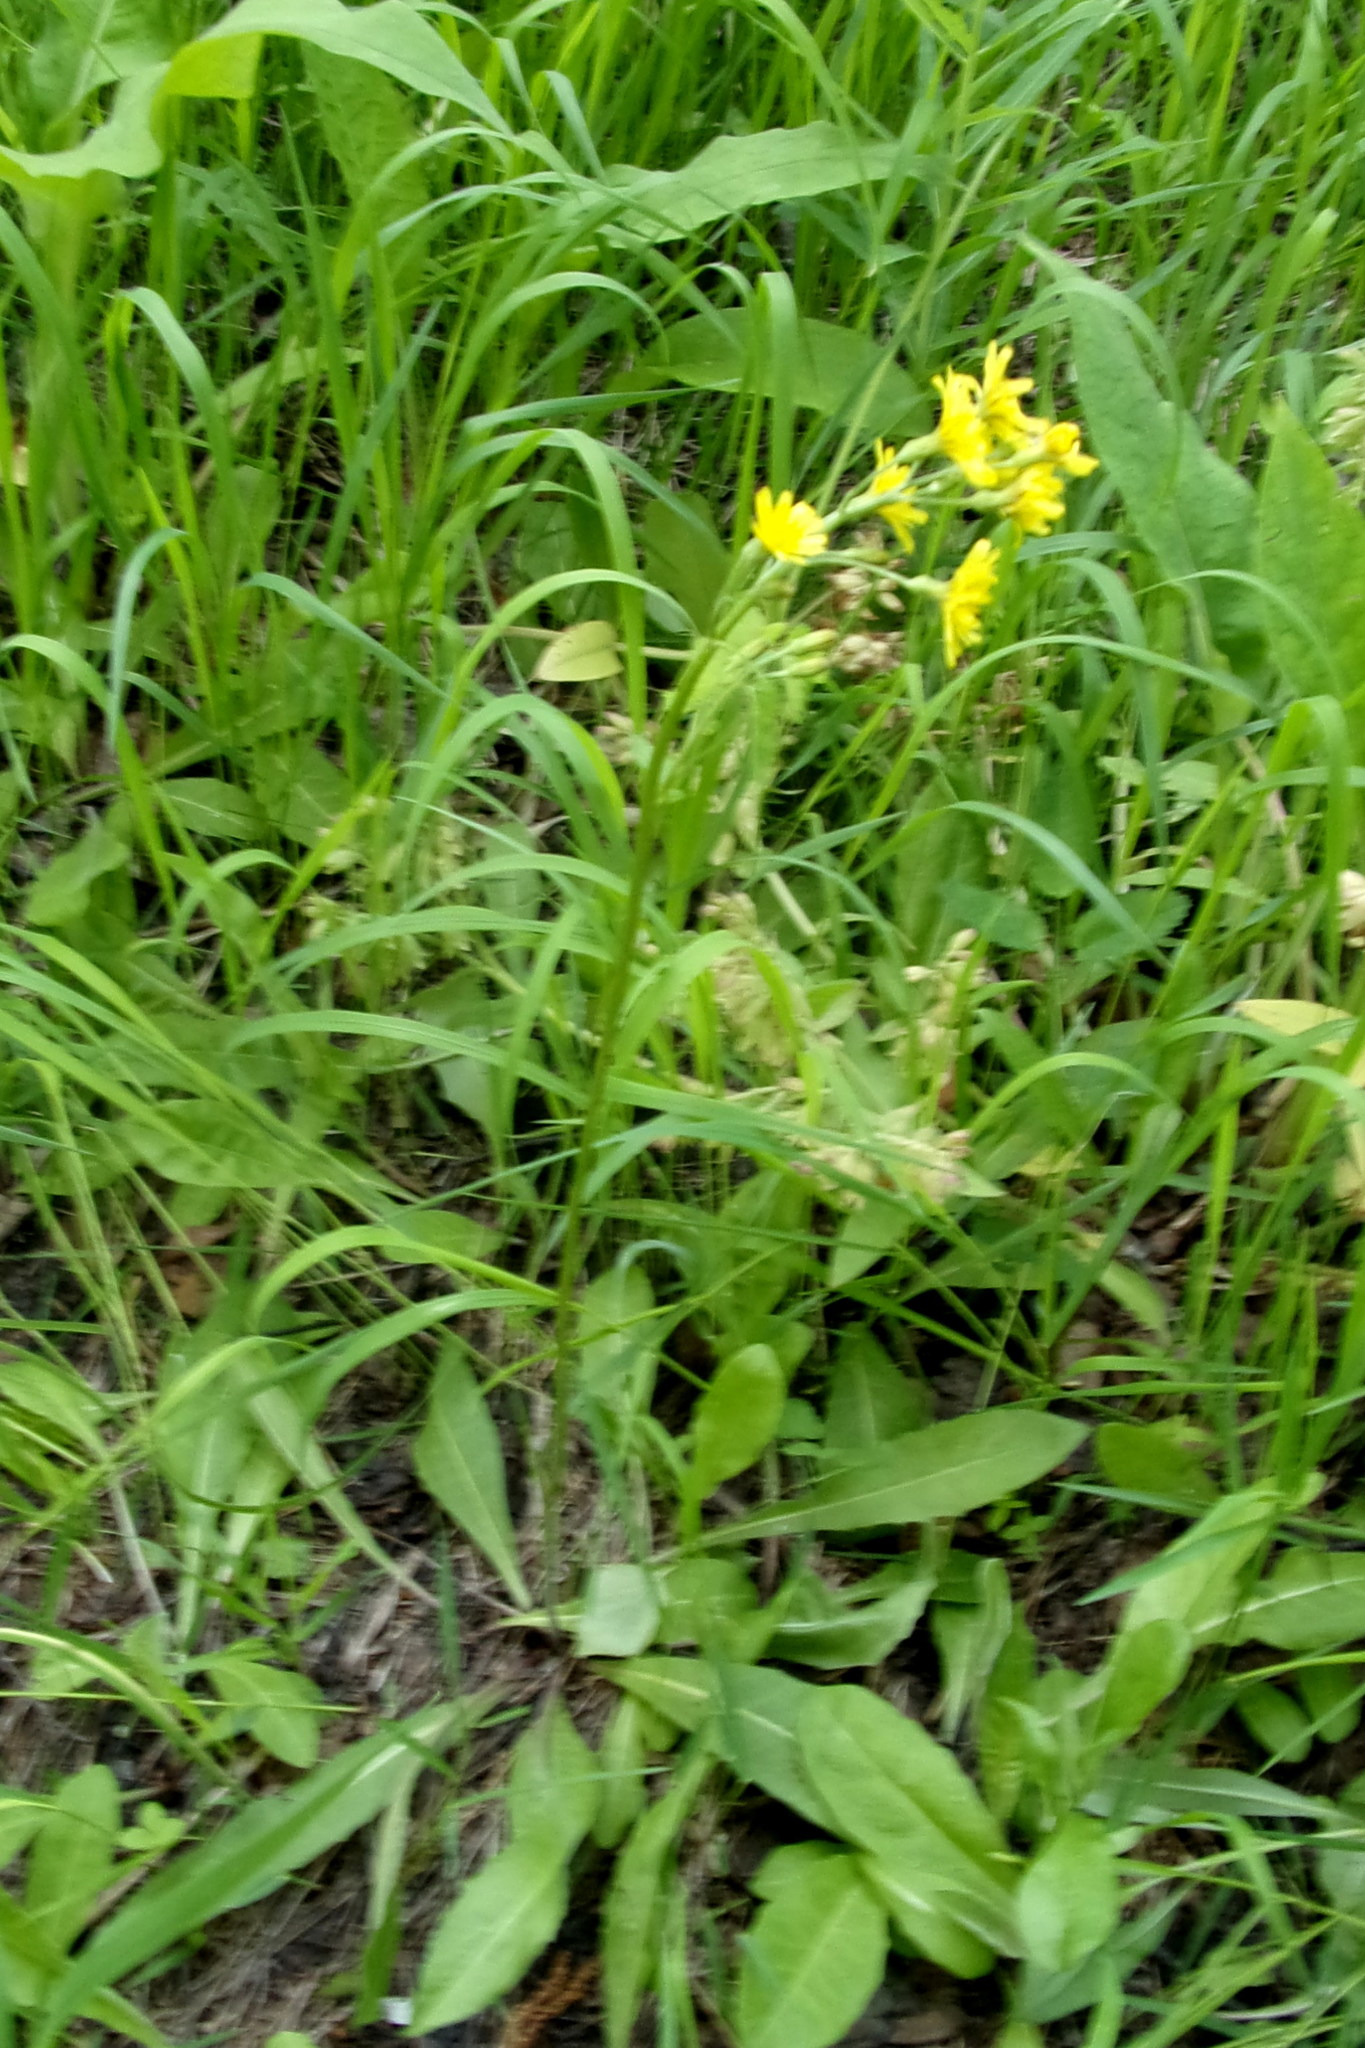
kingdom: Plantae
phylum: Tracheophyta
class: Magnoliopsida
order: Asterales
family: Asteraceae
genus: Crepis
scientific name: Crepis praemorsa
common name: Leafless hawk's-beard
